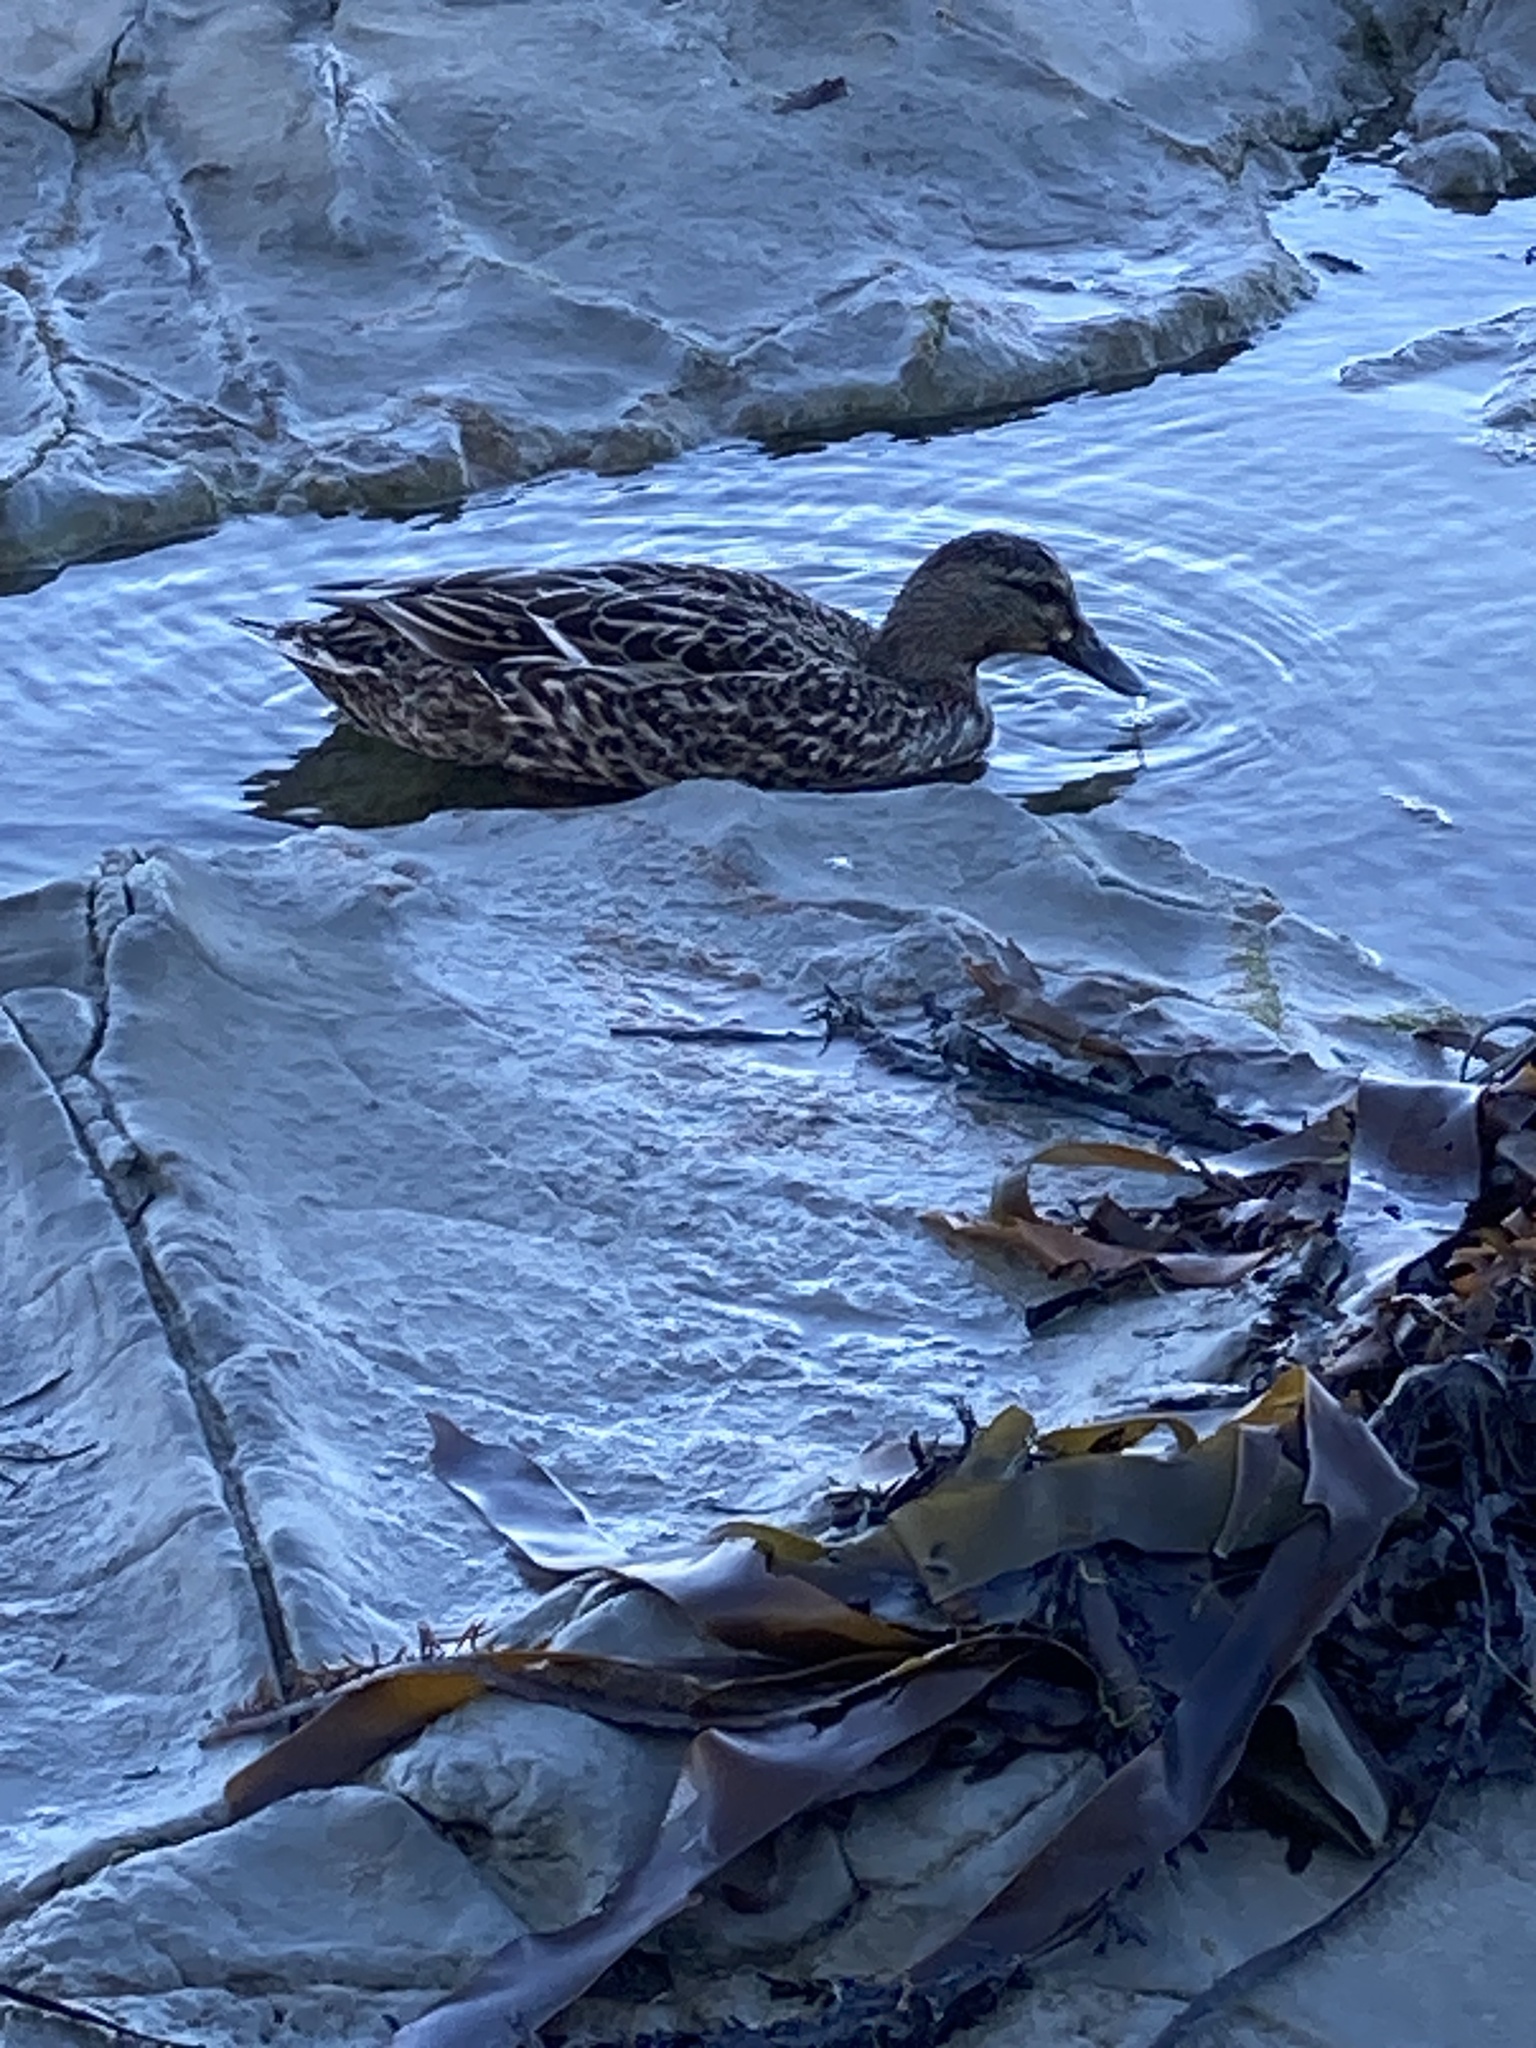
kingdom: Animalia
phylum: Chordata
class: Aves
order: Anseriformes
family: Anatidae
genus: Anas
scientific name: Anas platyrhynchos
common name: Mallard
